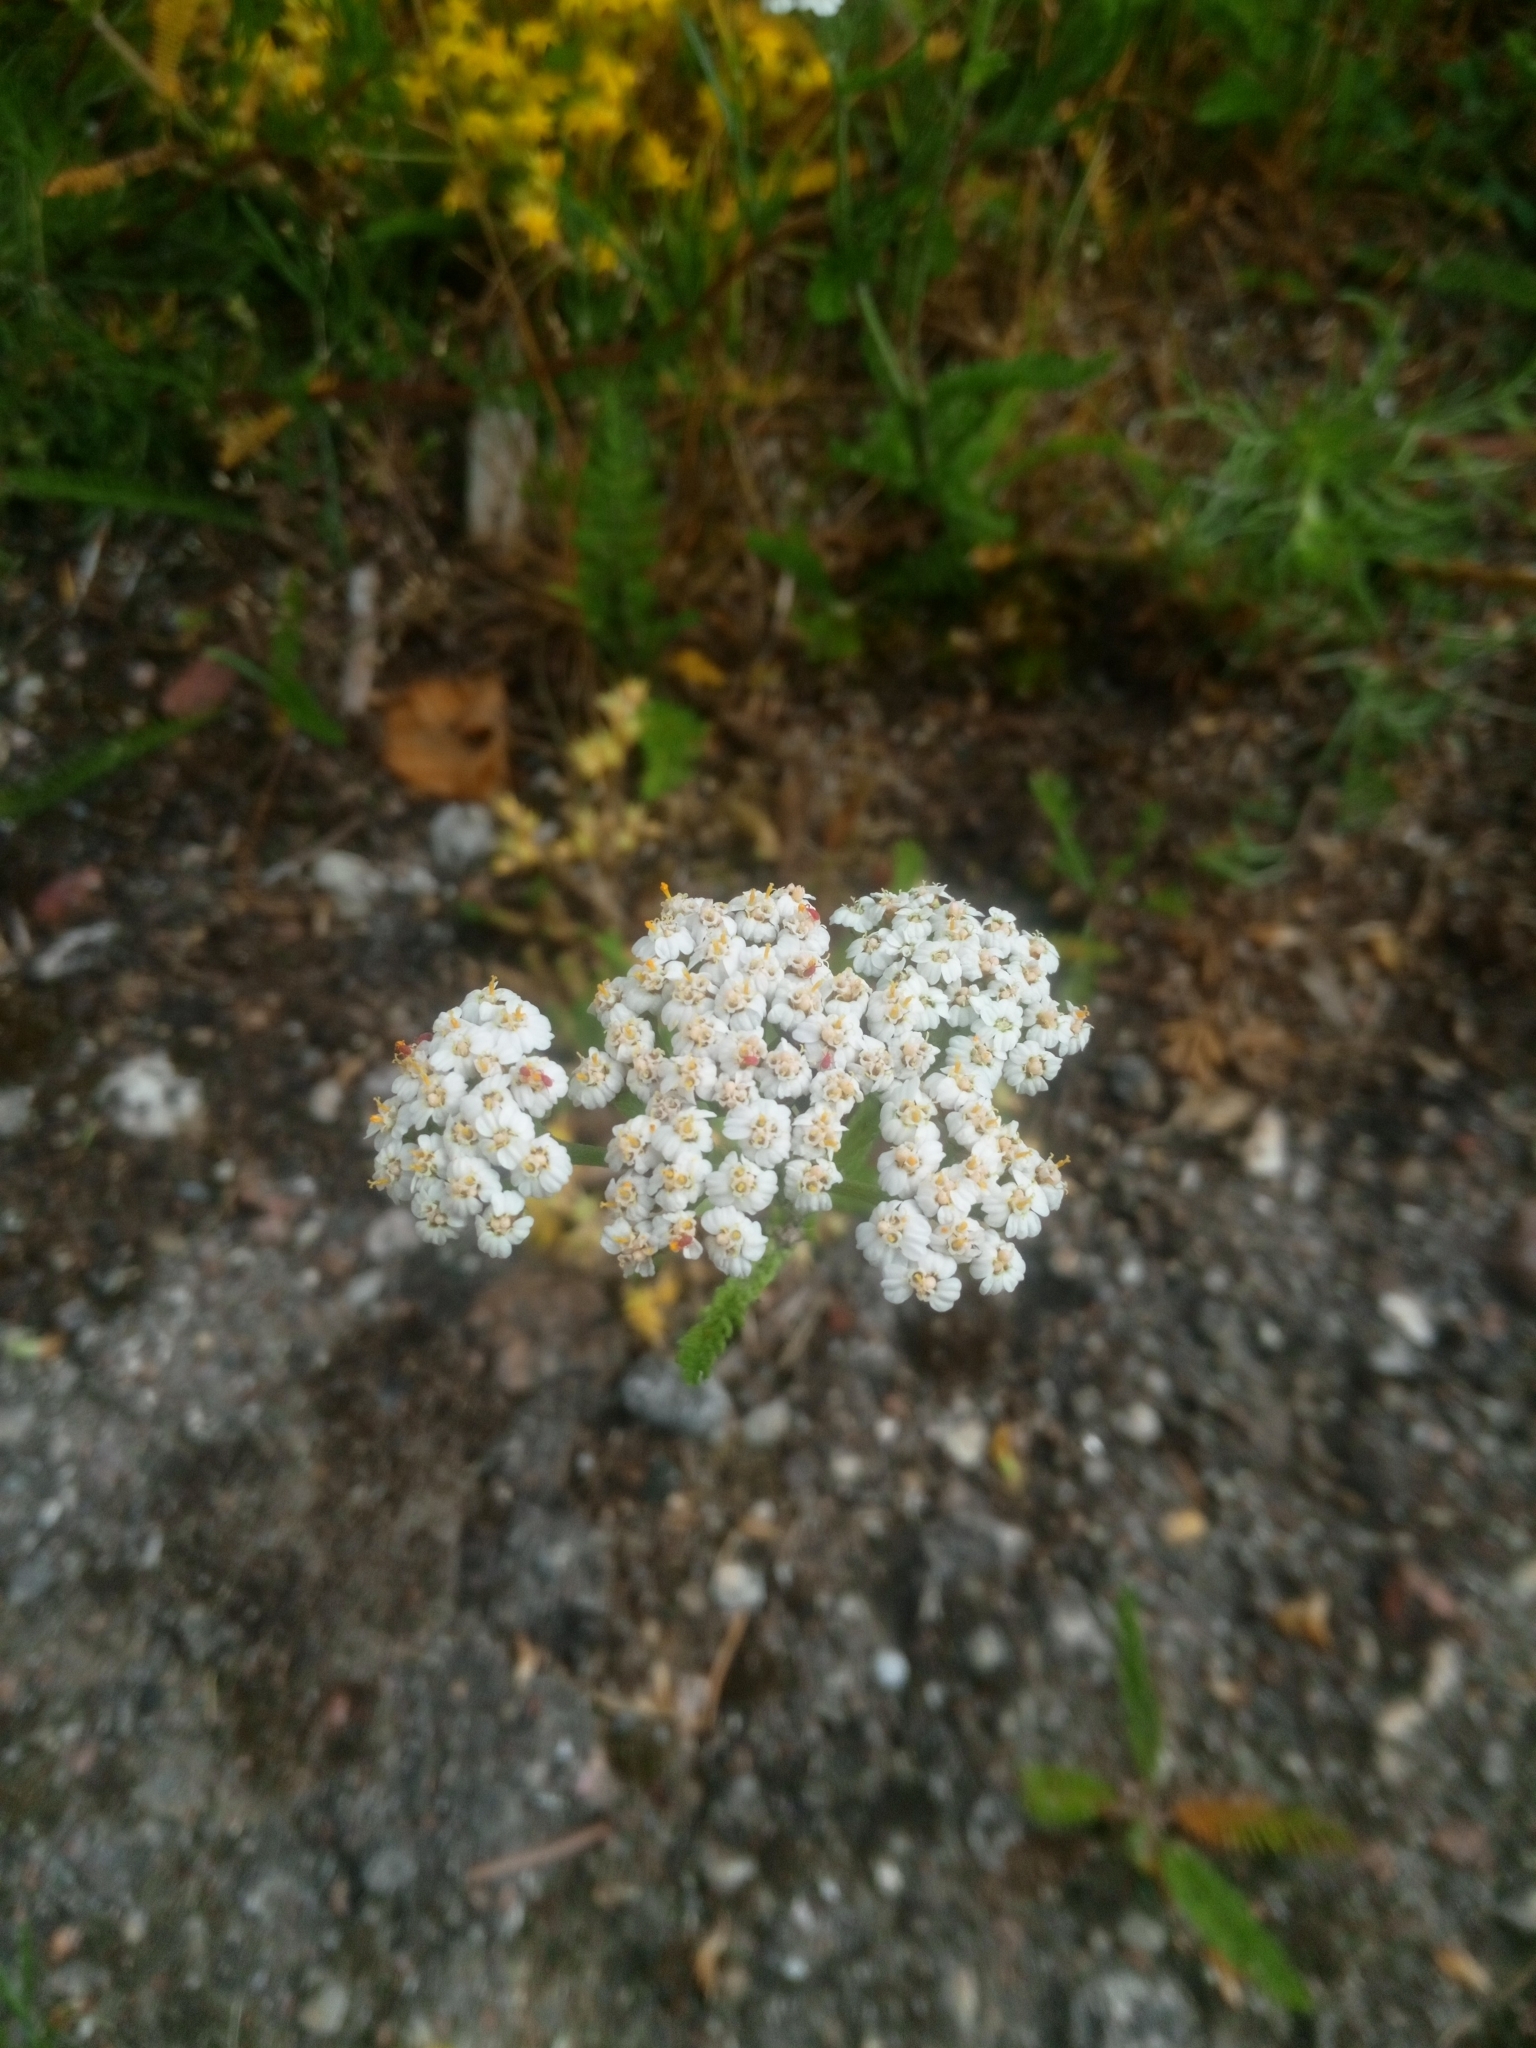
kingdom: Plantae
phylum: Tracheophyta
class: Magnoliopsida
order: Asterales
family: Asteraceae
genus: Achillea
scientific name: Achillea millefolium
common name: Yarrow
